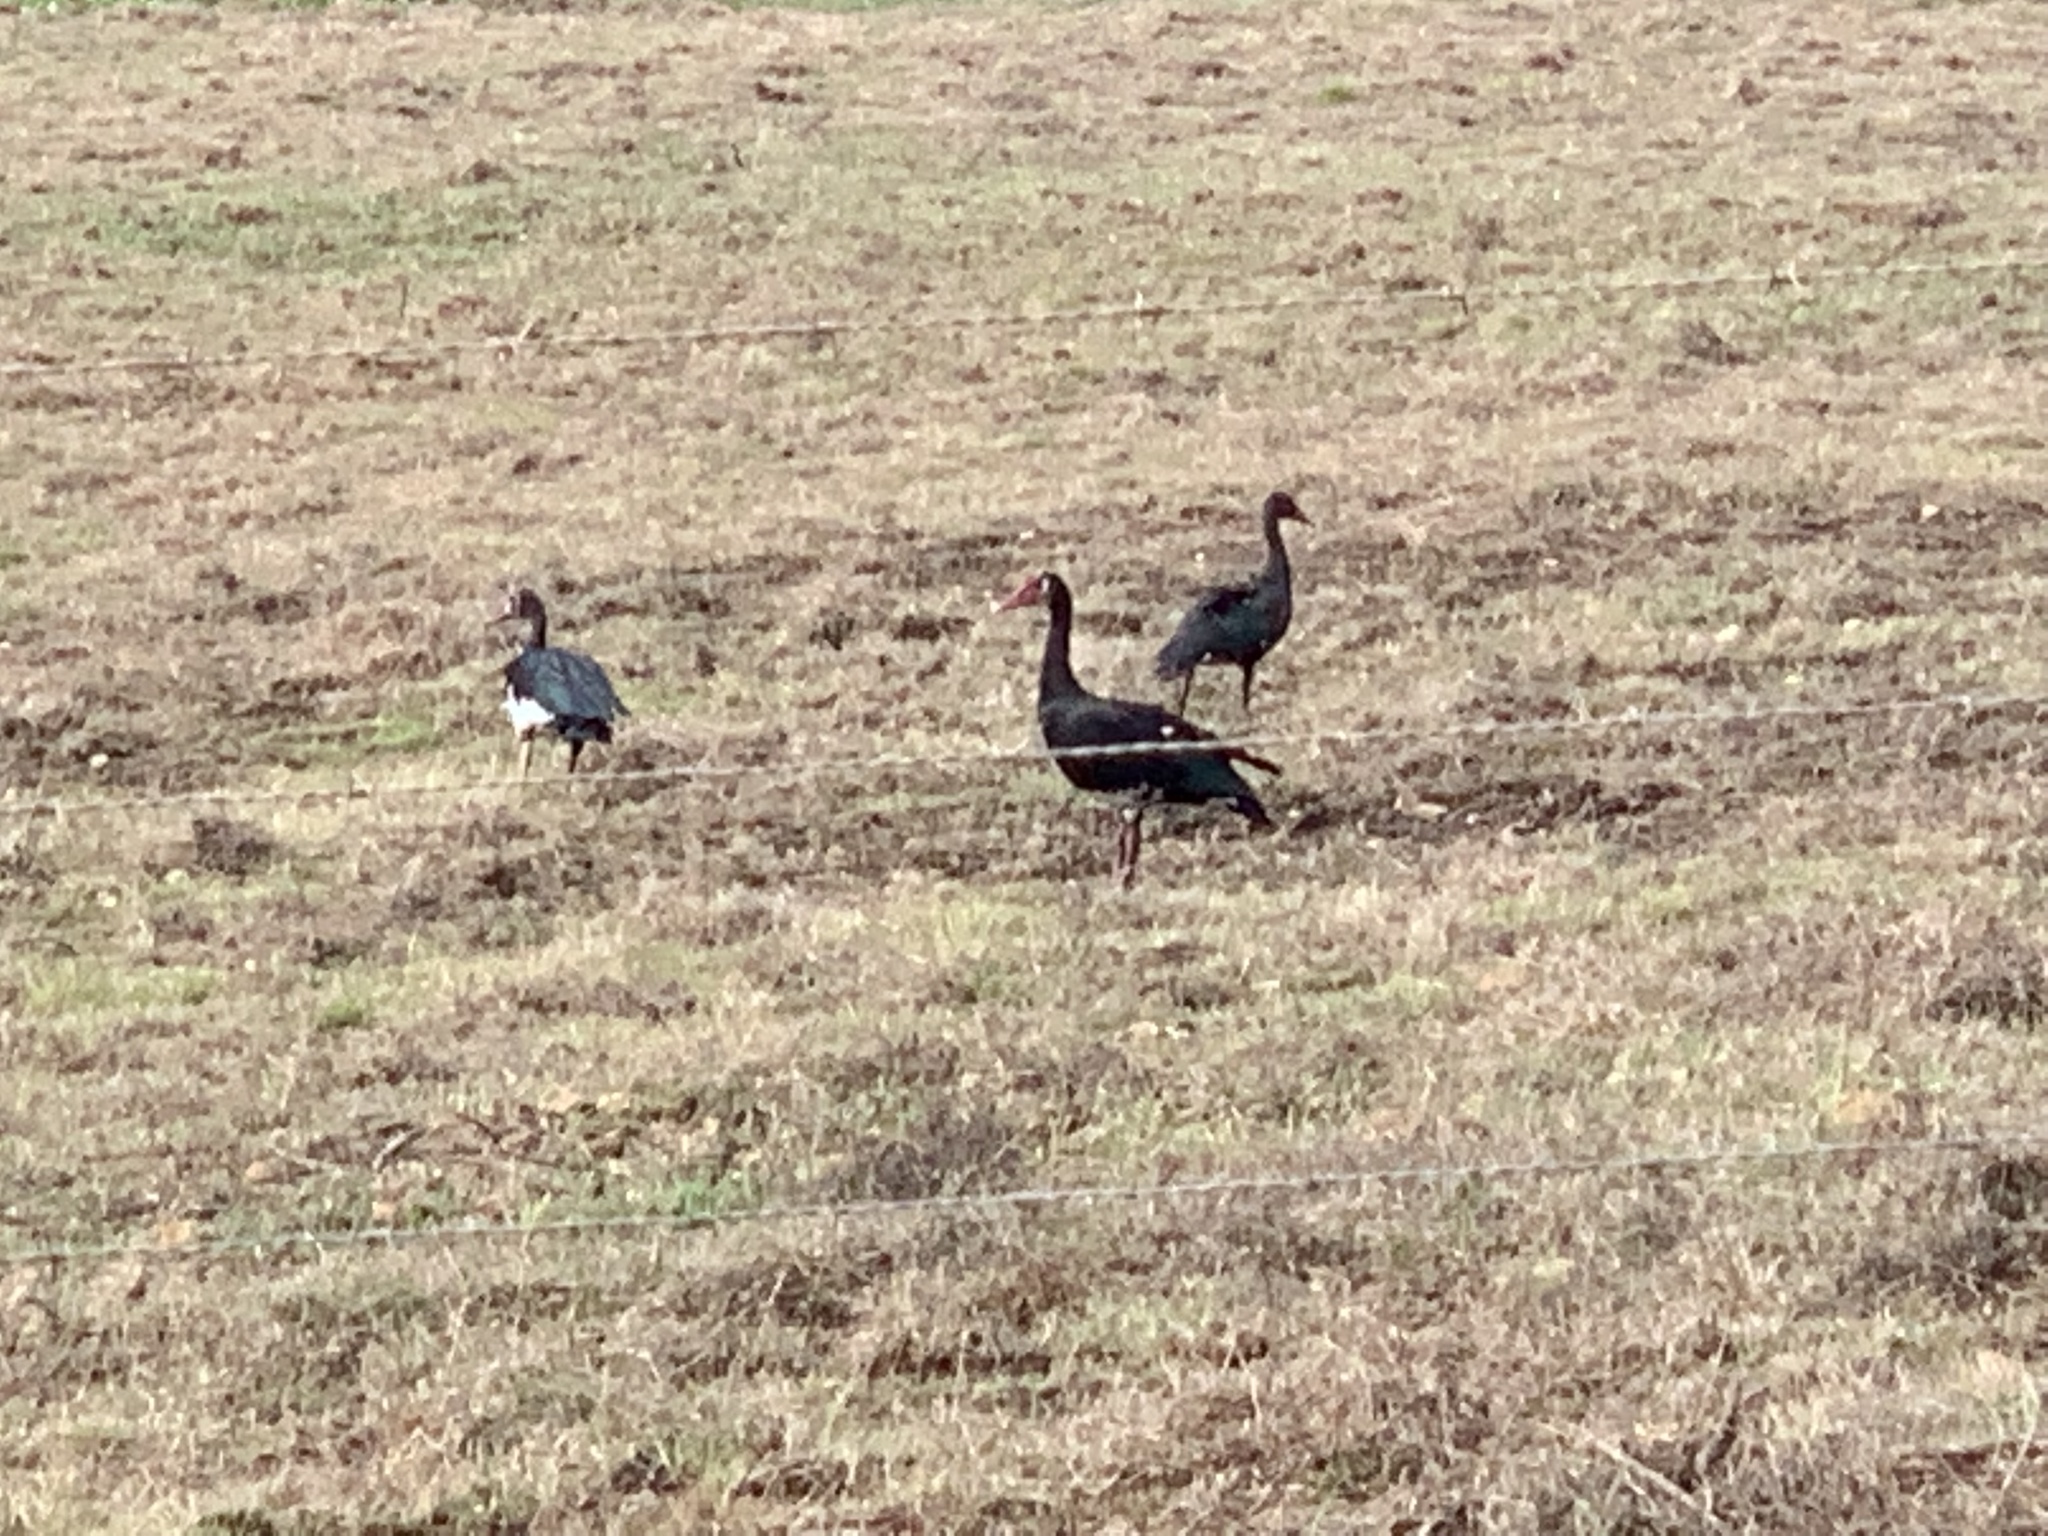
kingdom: Animalia
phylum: Chordata
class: Aves
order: Anseriformes
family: Anatidae
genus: Plectropterus
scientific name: Plectropterus gambensis
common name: Spur-winged goose
